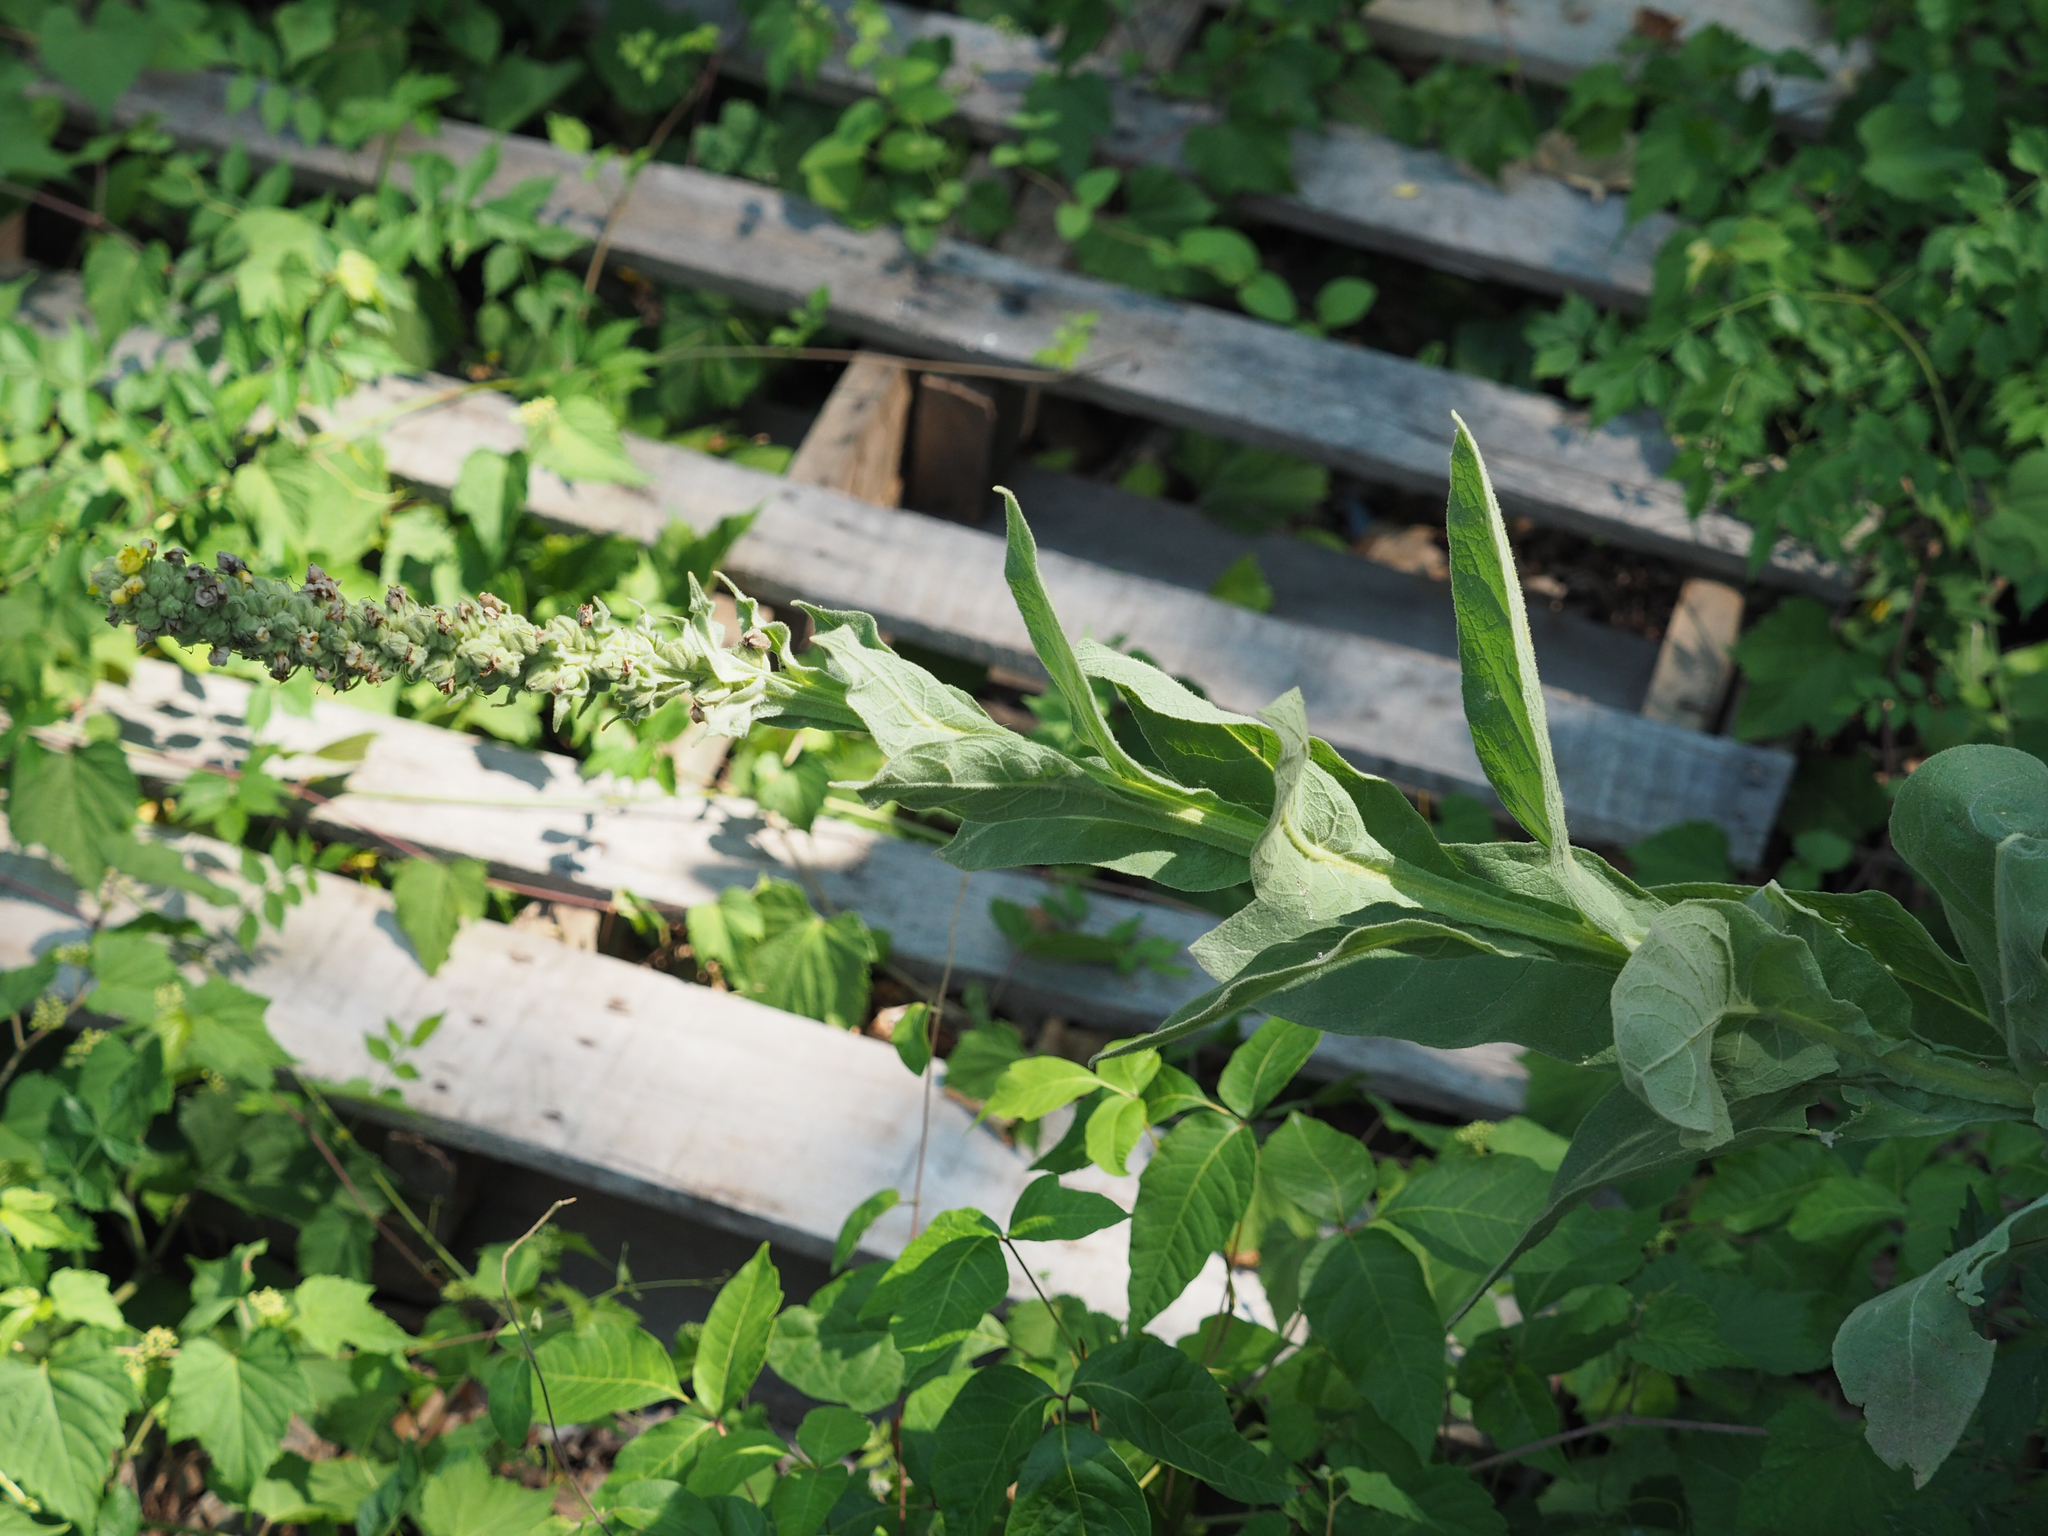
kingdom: Plantae
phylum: Tracheophyta
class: Magnoliopsida
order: Lamiales
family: Scrophulariaceae
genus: Verbascum
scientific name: Verbascum thapsus
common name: Common mullein
